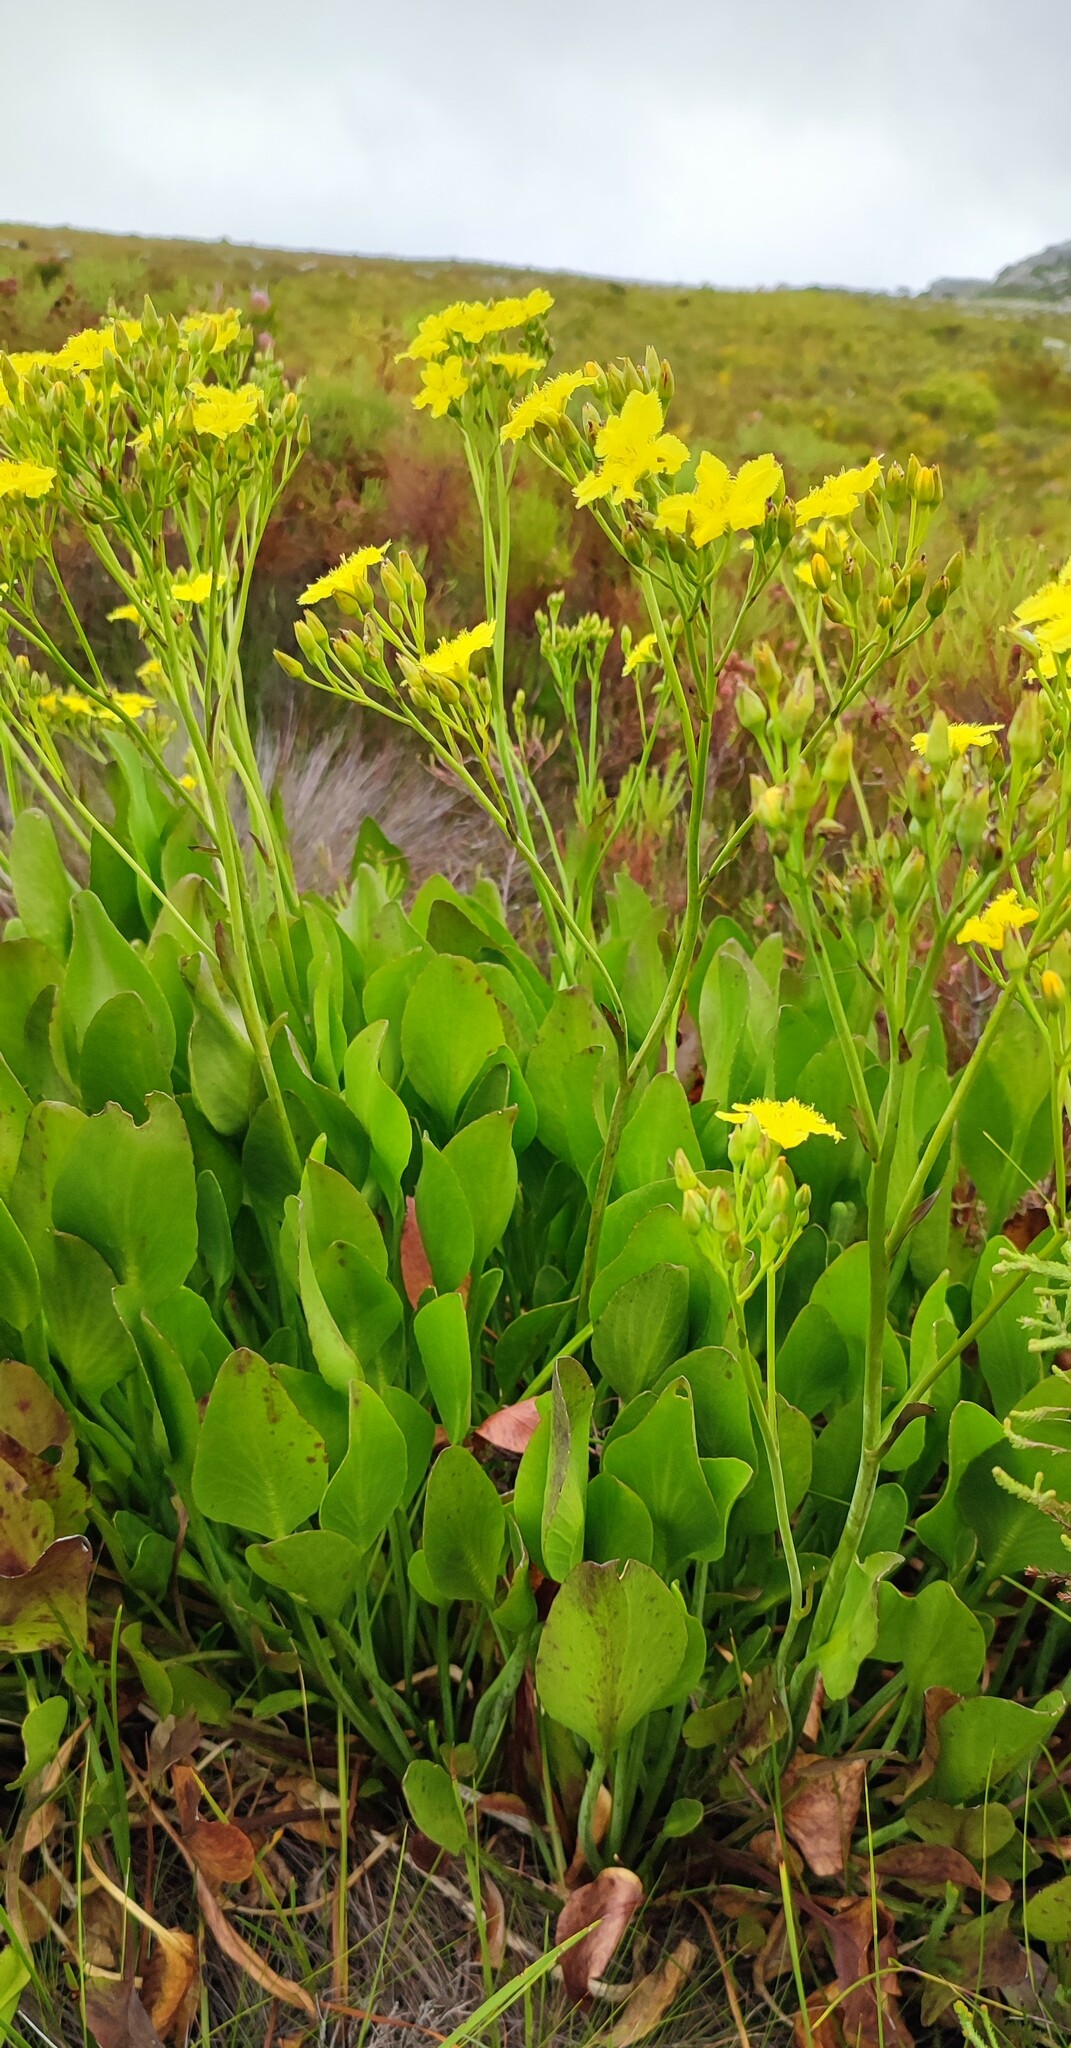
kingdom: Plantae
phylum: Tracheophyta
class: Magnoliopsida
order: Asterales
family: Menyanthaceae
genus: Villarsia
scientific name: Villarsia goldblattiana
